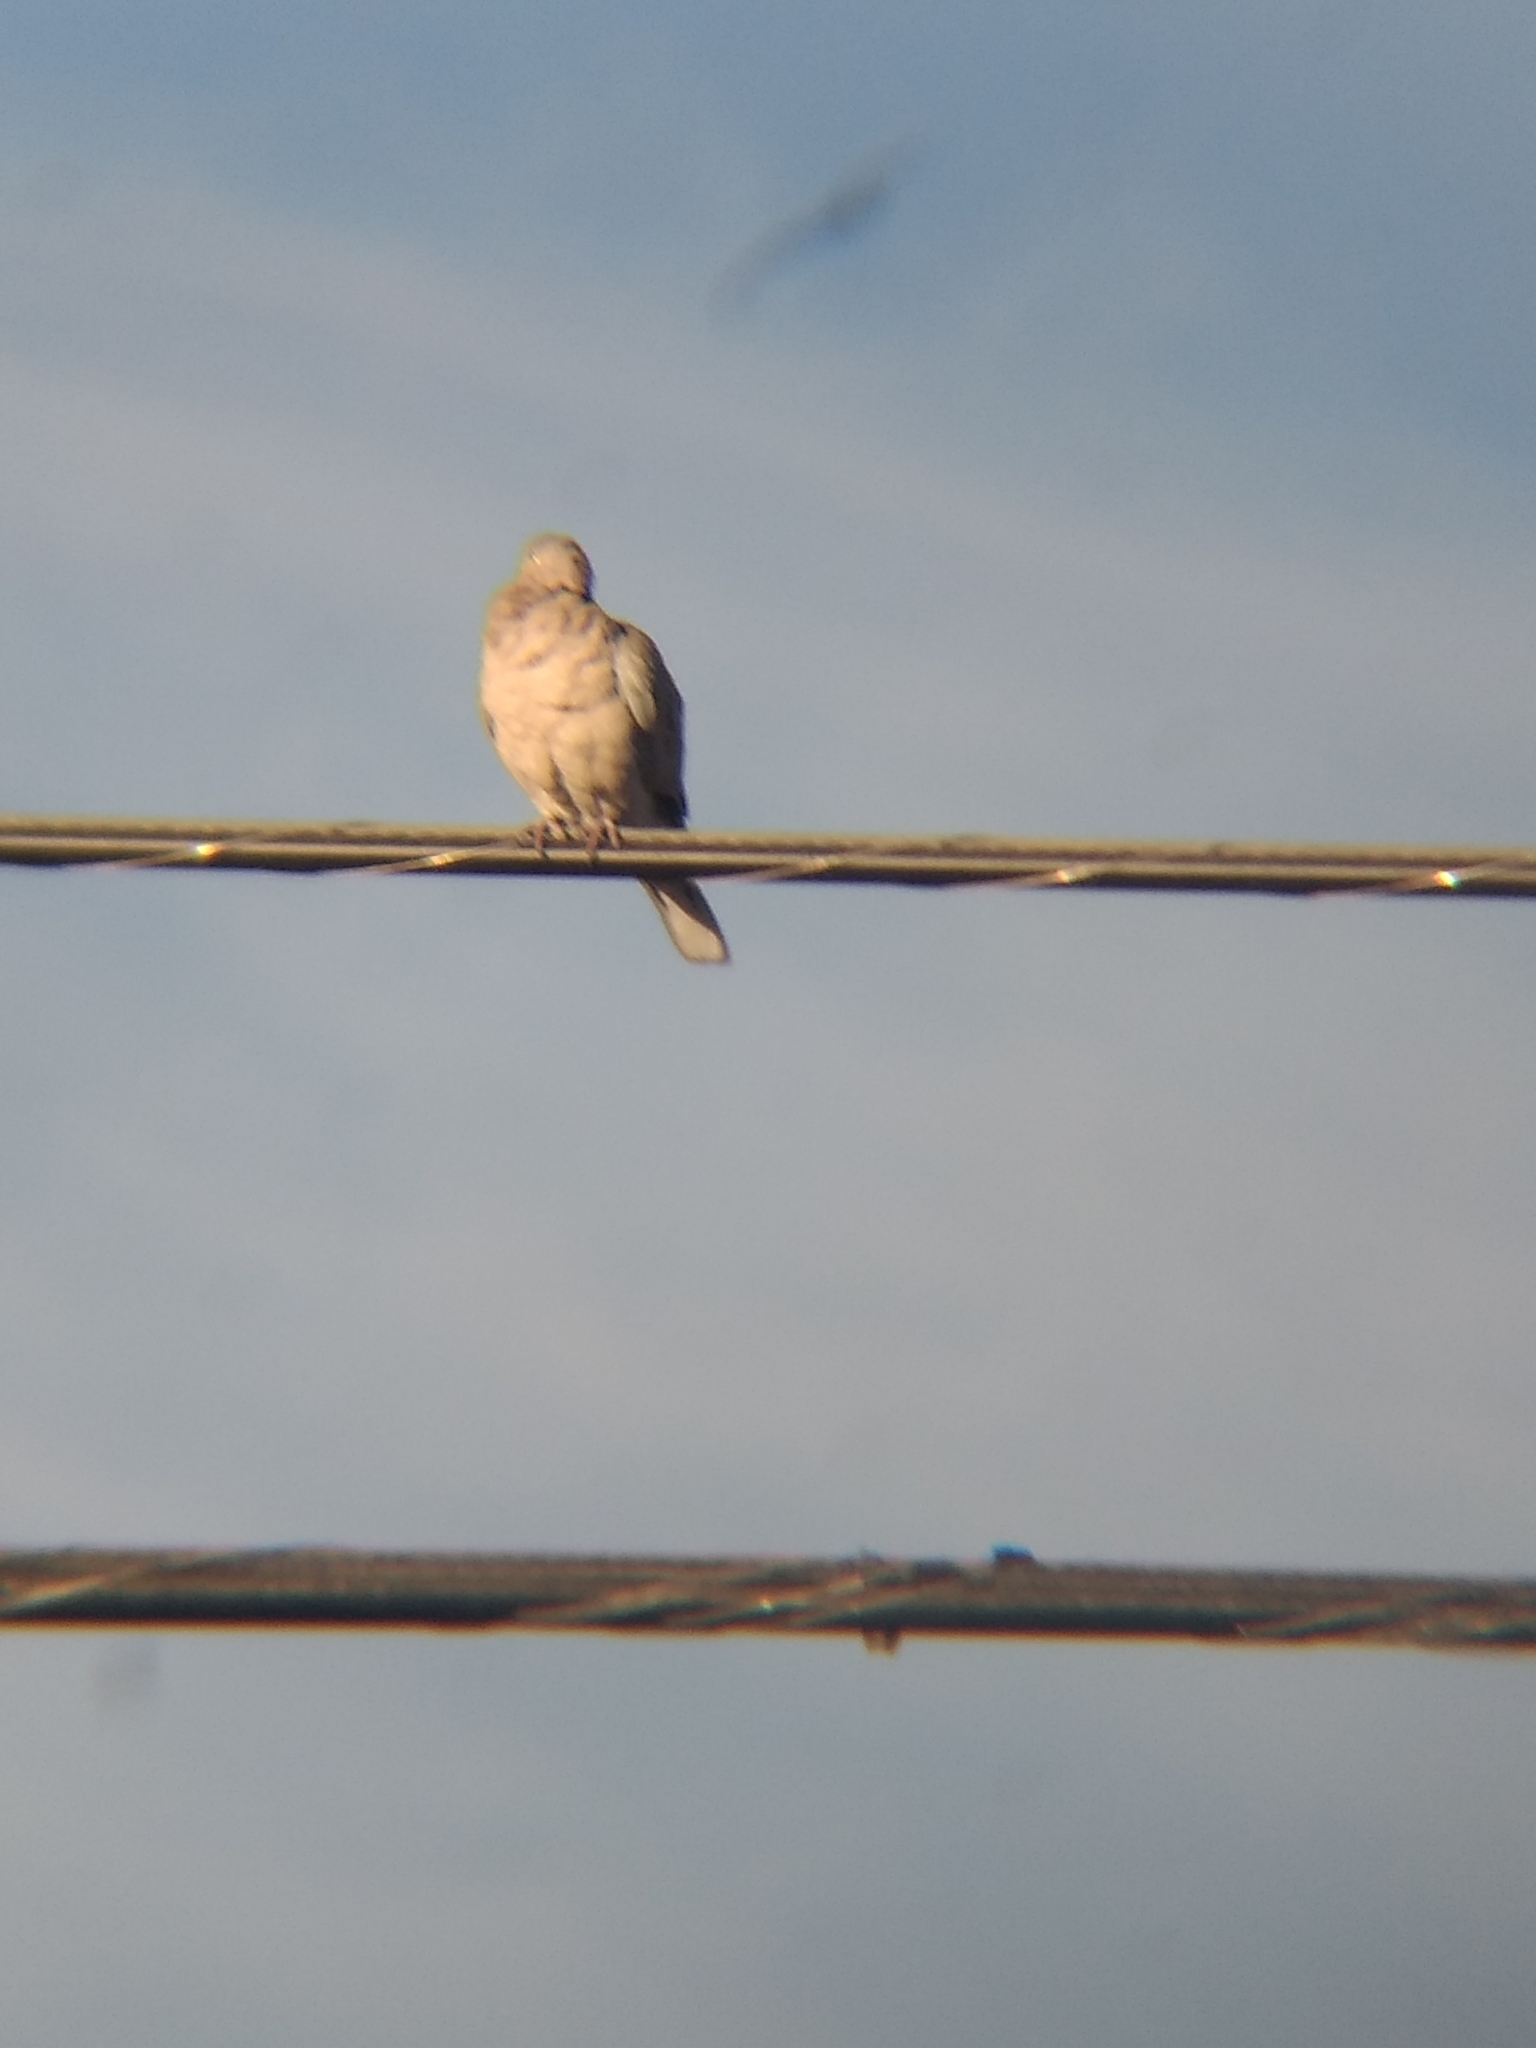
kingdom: Animalia
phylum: Chordata
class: Aves
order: Columbiformes
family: Columbidae
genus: Streptopelia
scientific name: Streptopelia decaocto
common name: Eurasian collared dove
